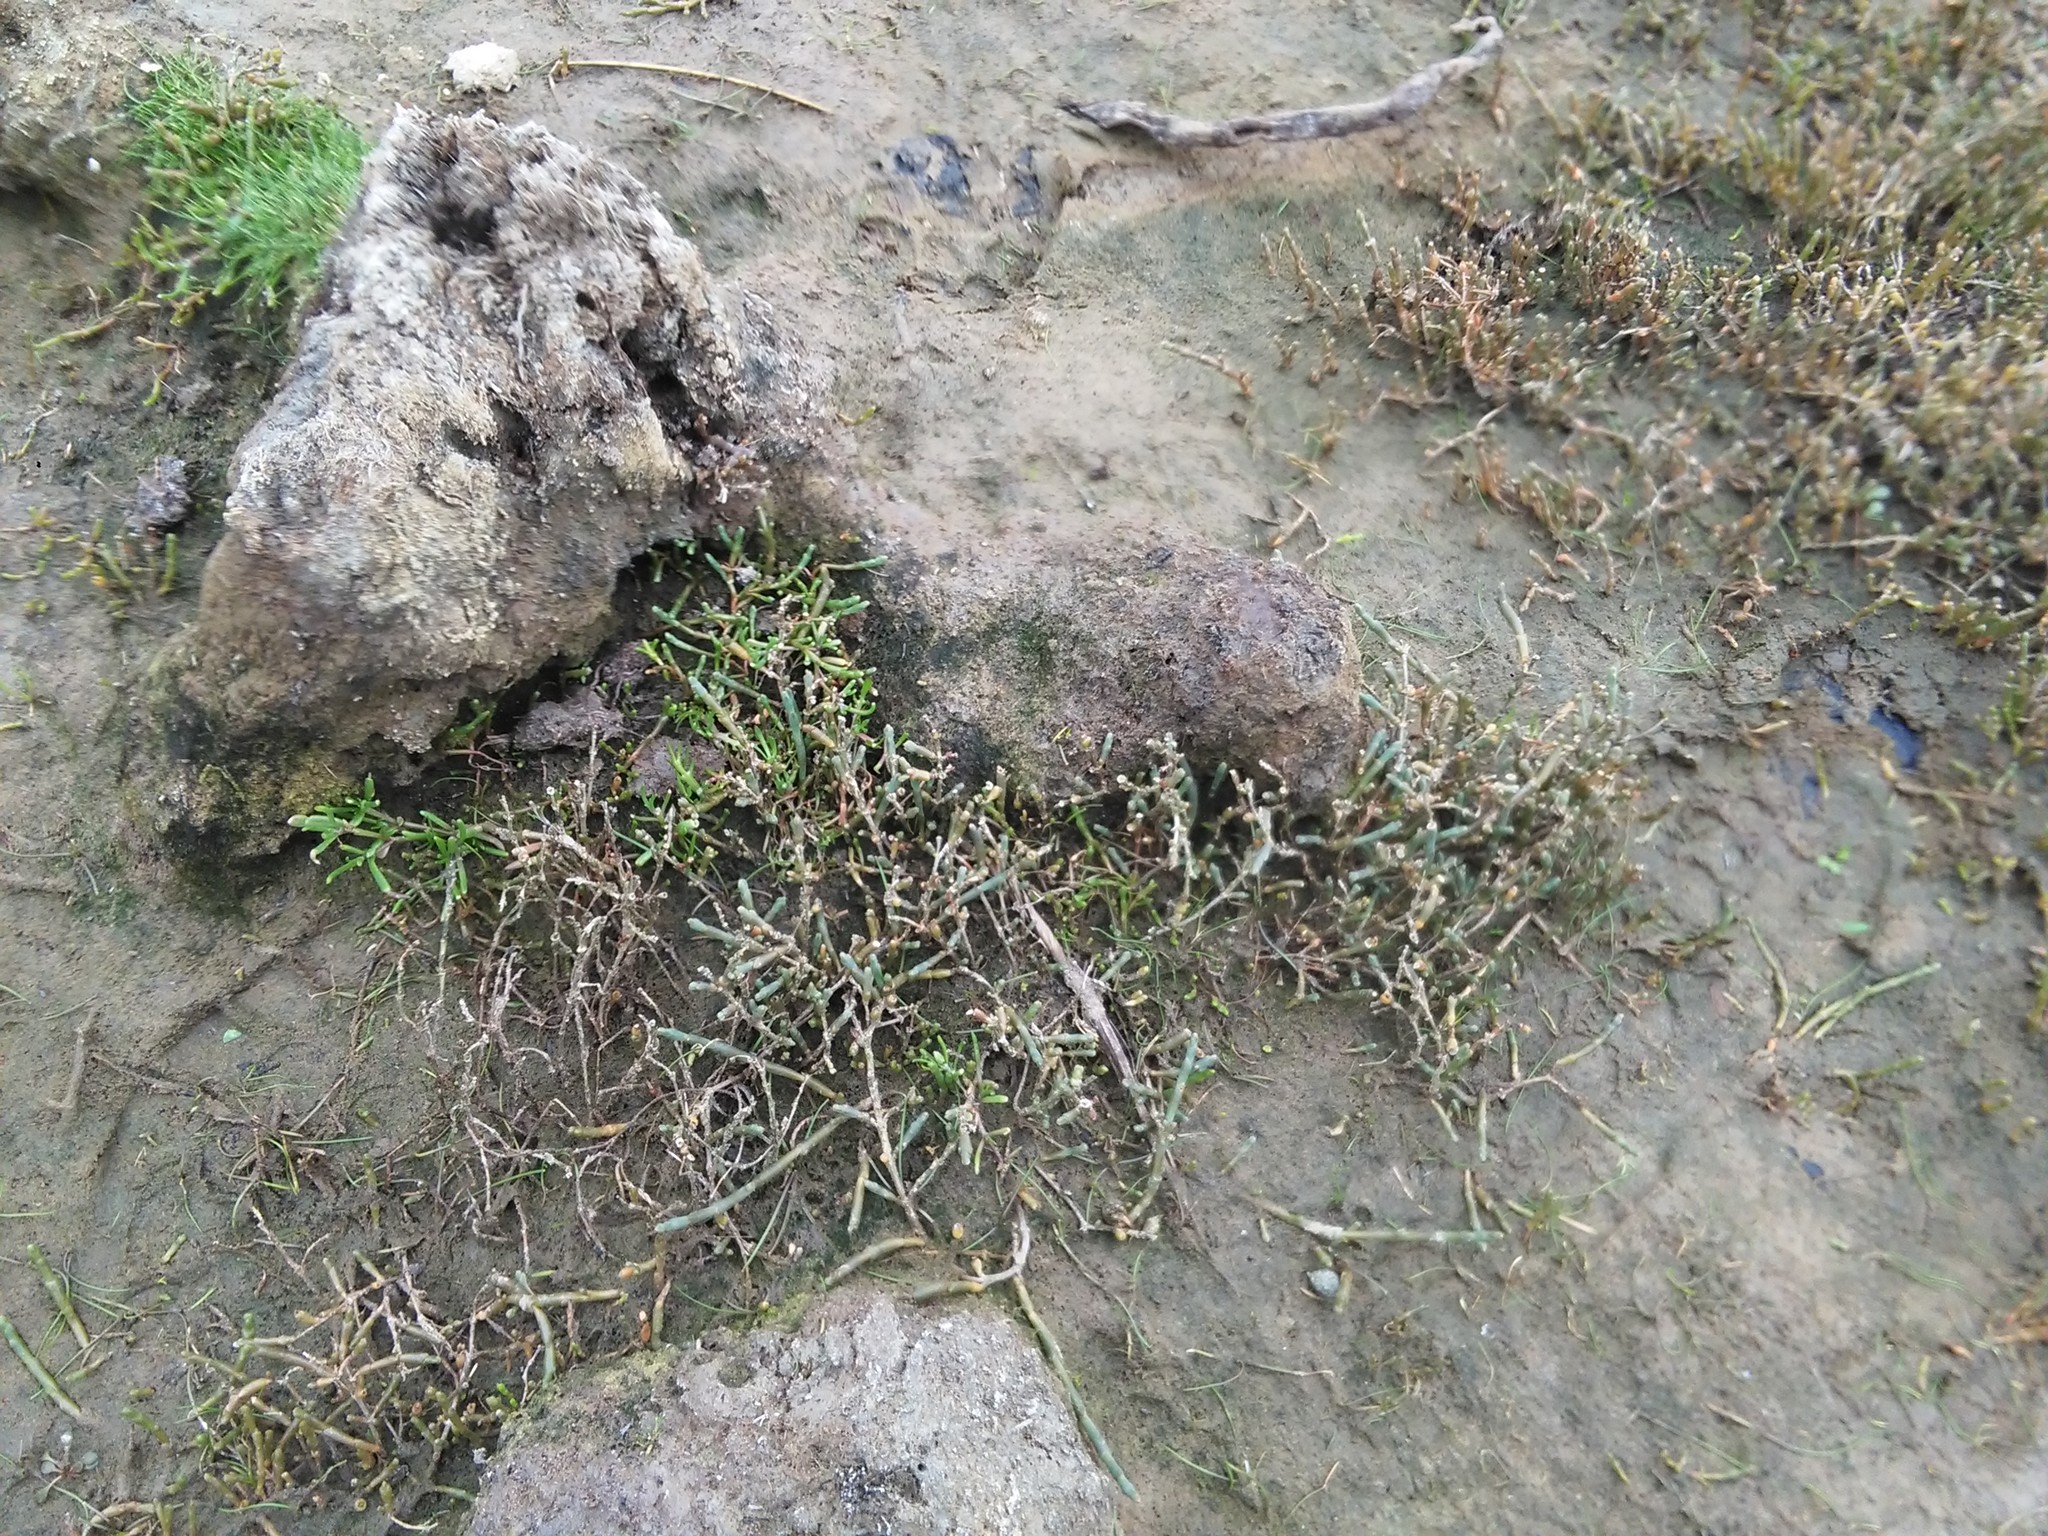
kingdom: Plantae
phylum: Tracheophyta
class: Magnoliopsida
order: Caryophyllales
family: Amaranthaceae
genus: Salicornia
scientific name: Salicornia quinqueflora
